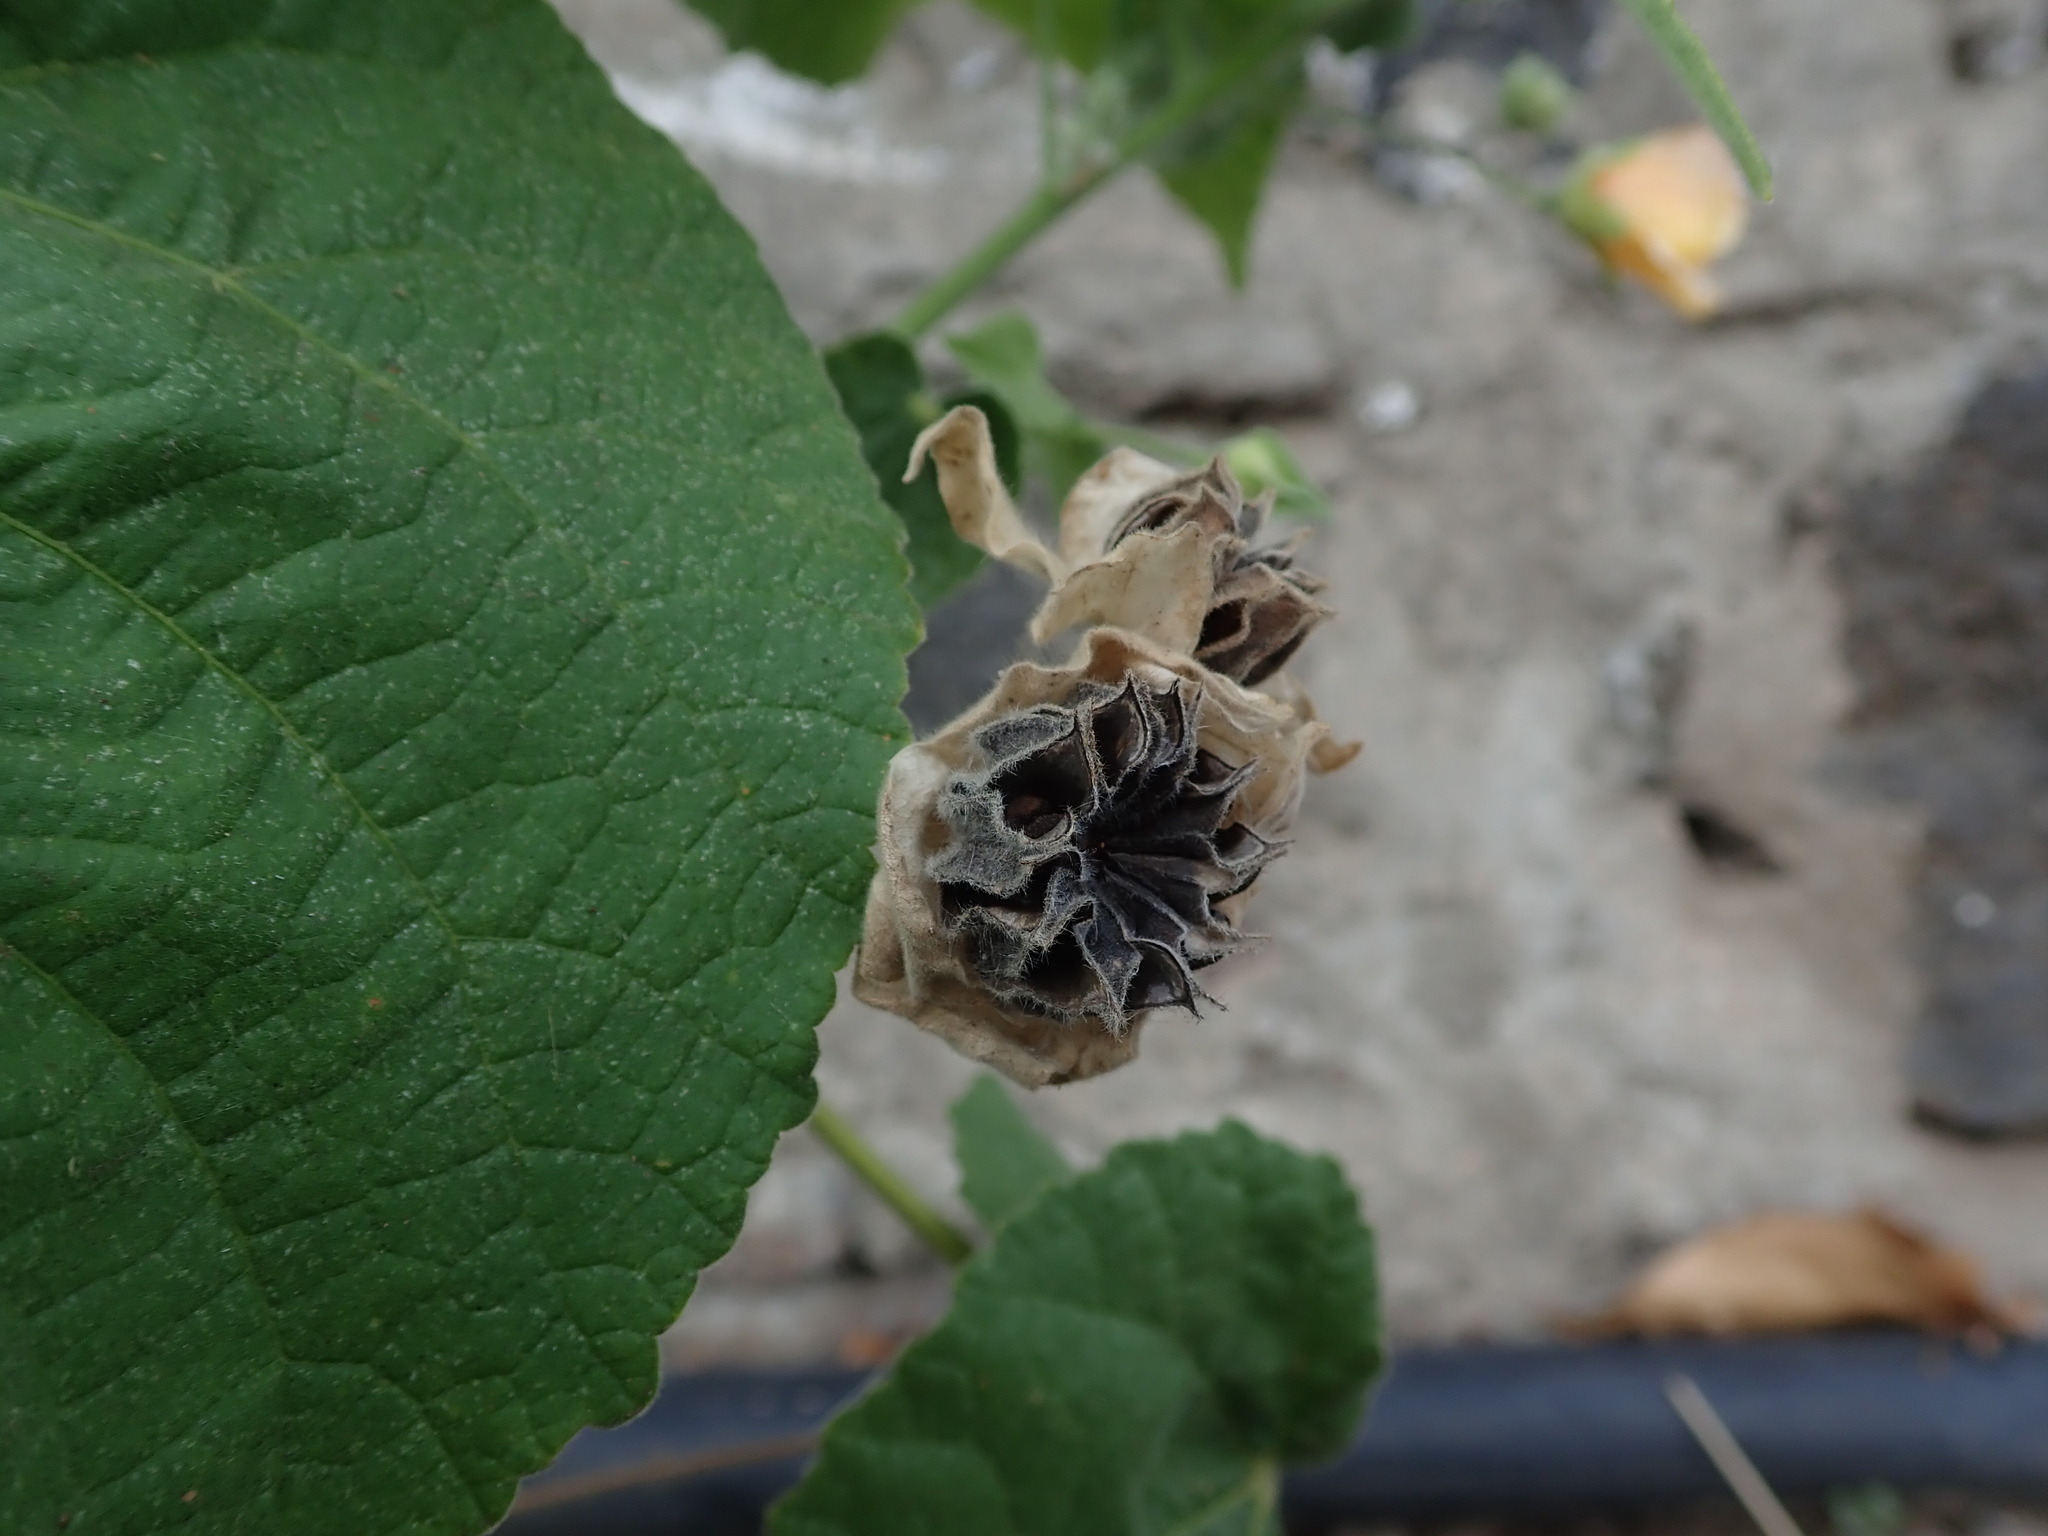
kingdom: Plantae
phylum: Tracheophyta
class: Magnoliopsida
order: Malvales
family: Malvaceae
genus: Abutilon
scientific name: Abutilon grandifolium
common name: Hairy abutilon
